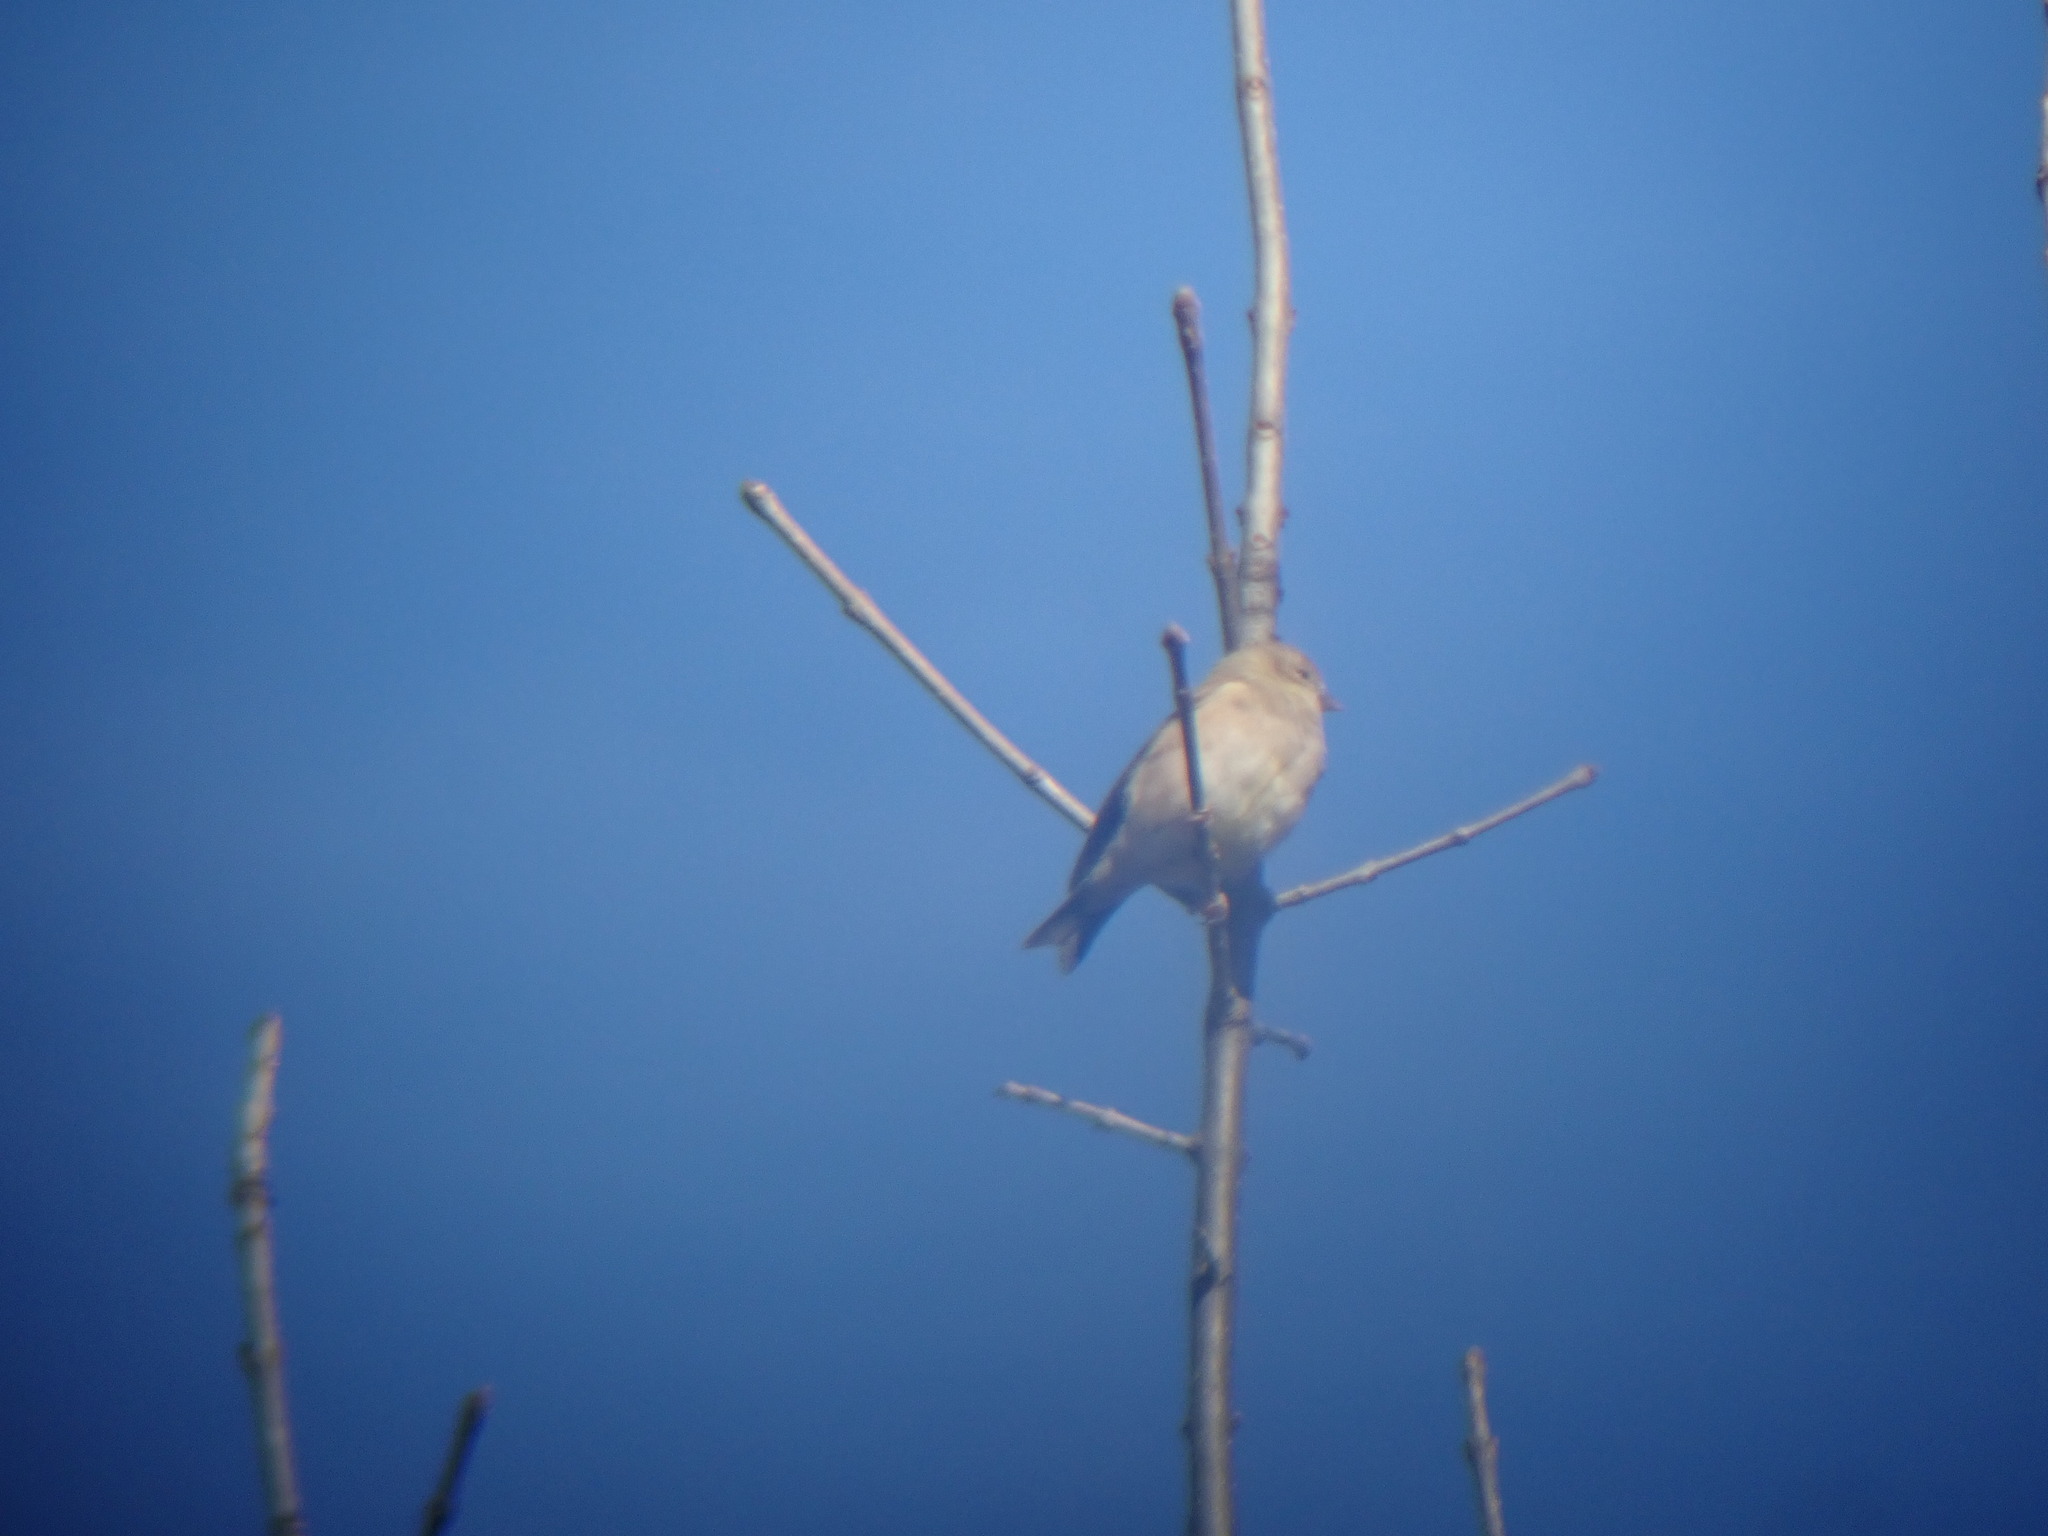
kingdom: Animalia
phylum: Chordata
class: Aves
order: Passeriformes
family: Fringillidae
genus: Spinus
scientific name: Spinus tristis
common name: American goldfinch
